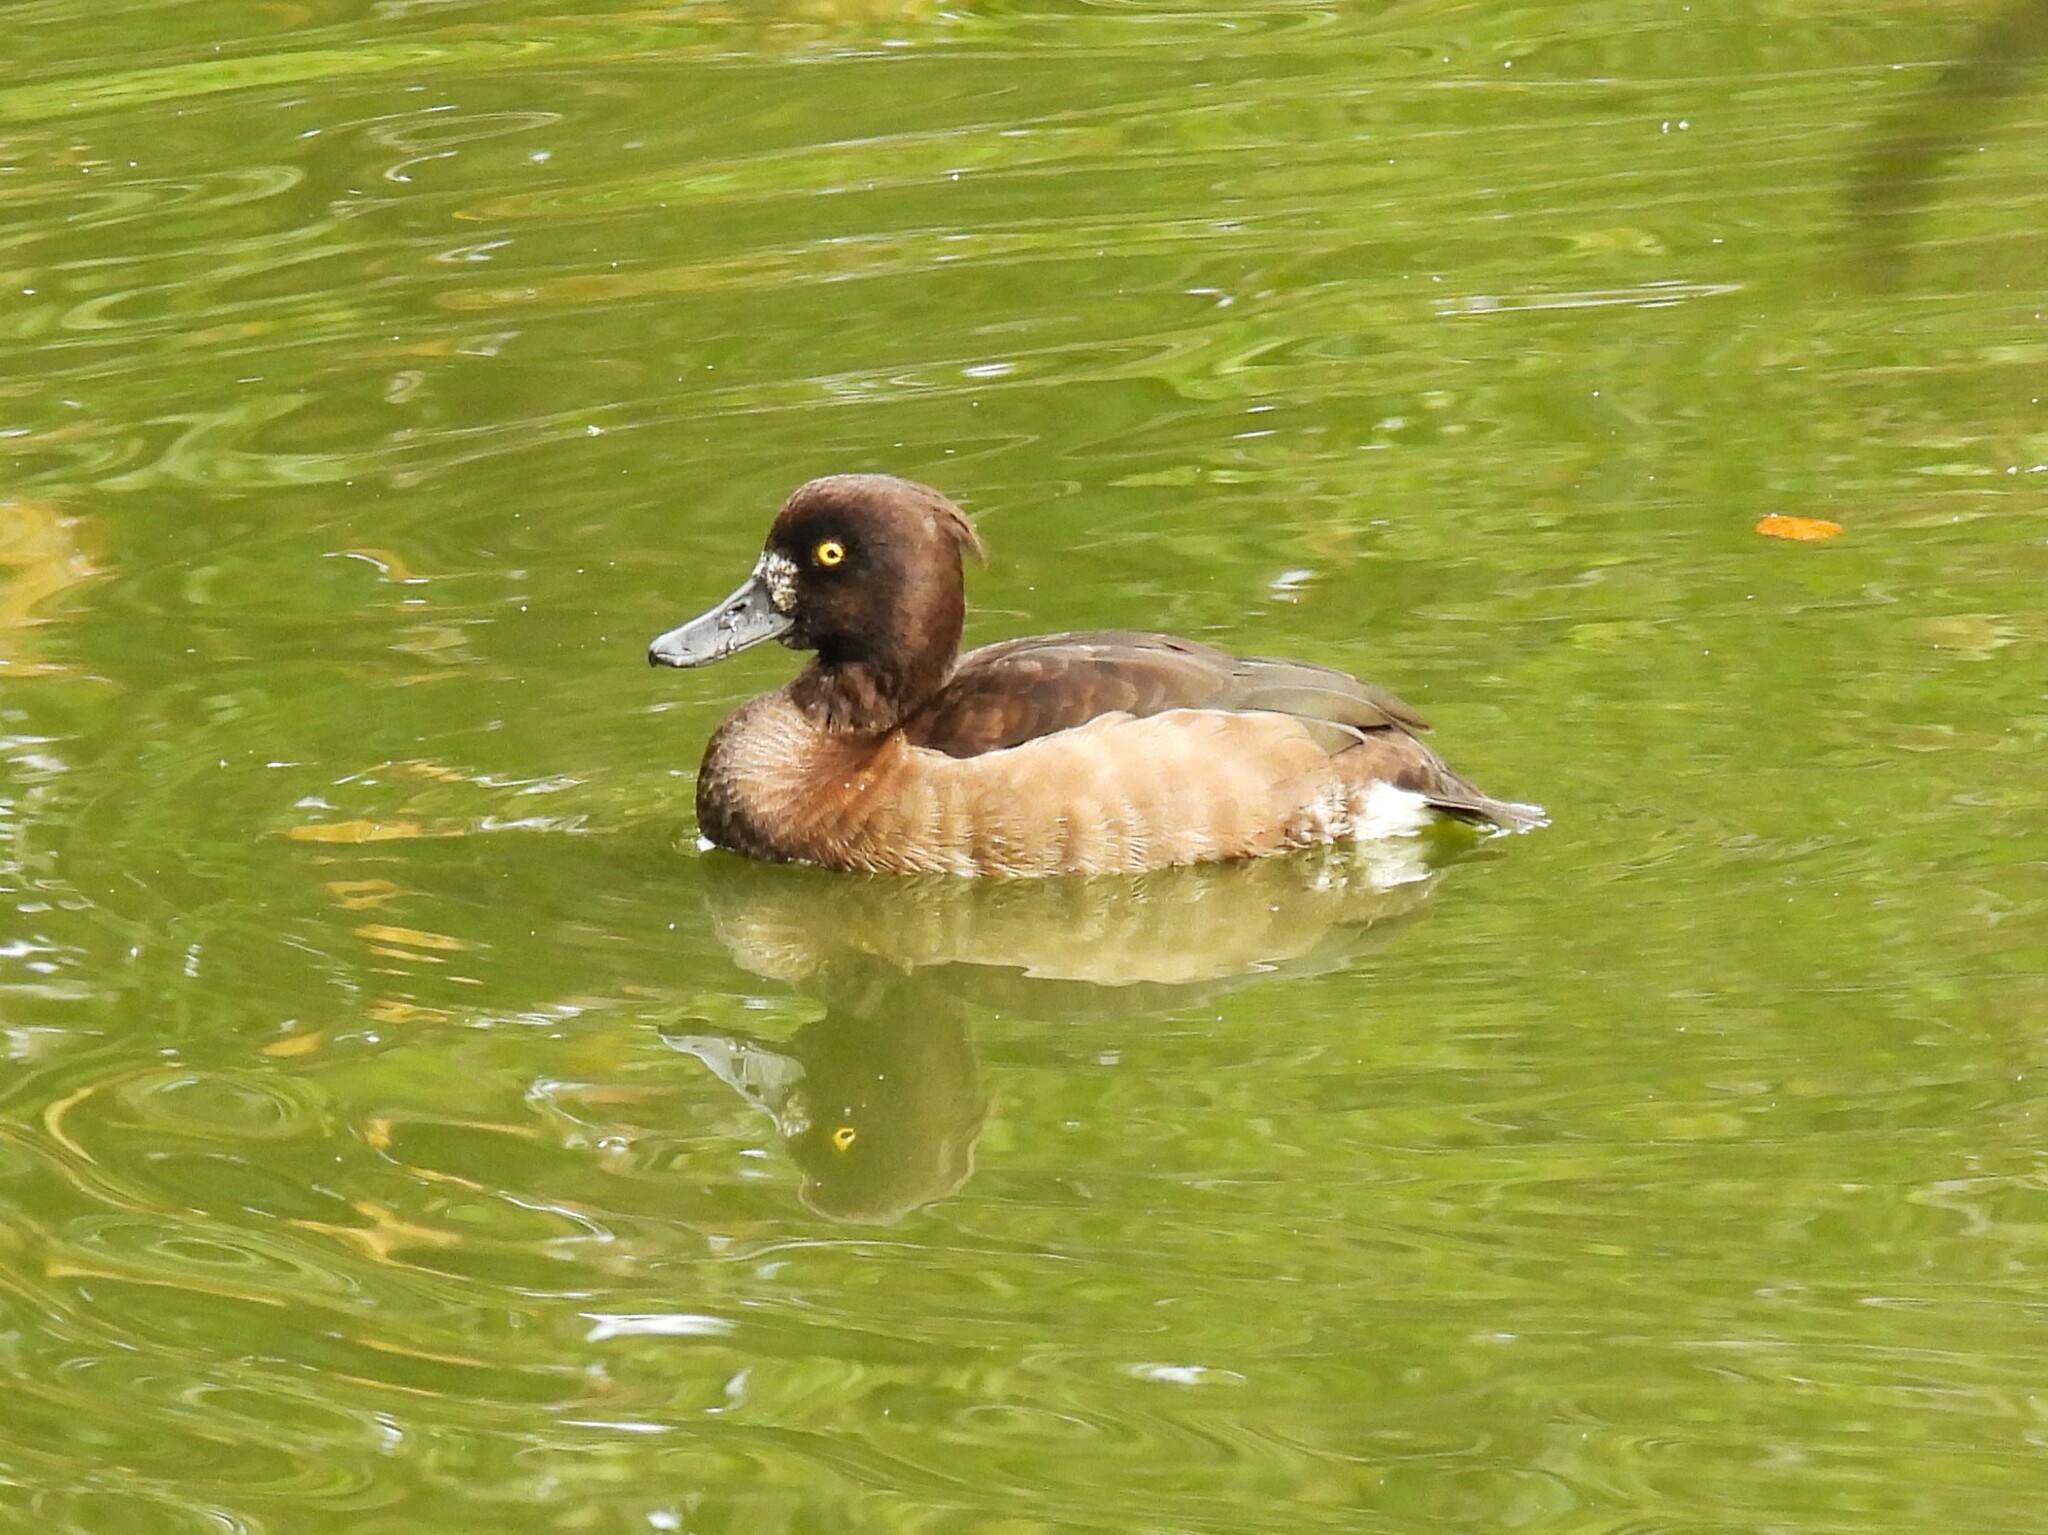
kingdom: Animalia
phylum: Chordata
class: Aves
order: Anseriformes
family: Anatidae
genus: Aythya
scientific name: Aythya fuligula
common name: Tufted duck
